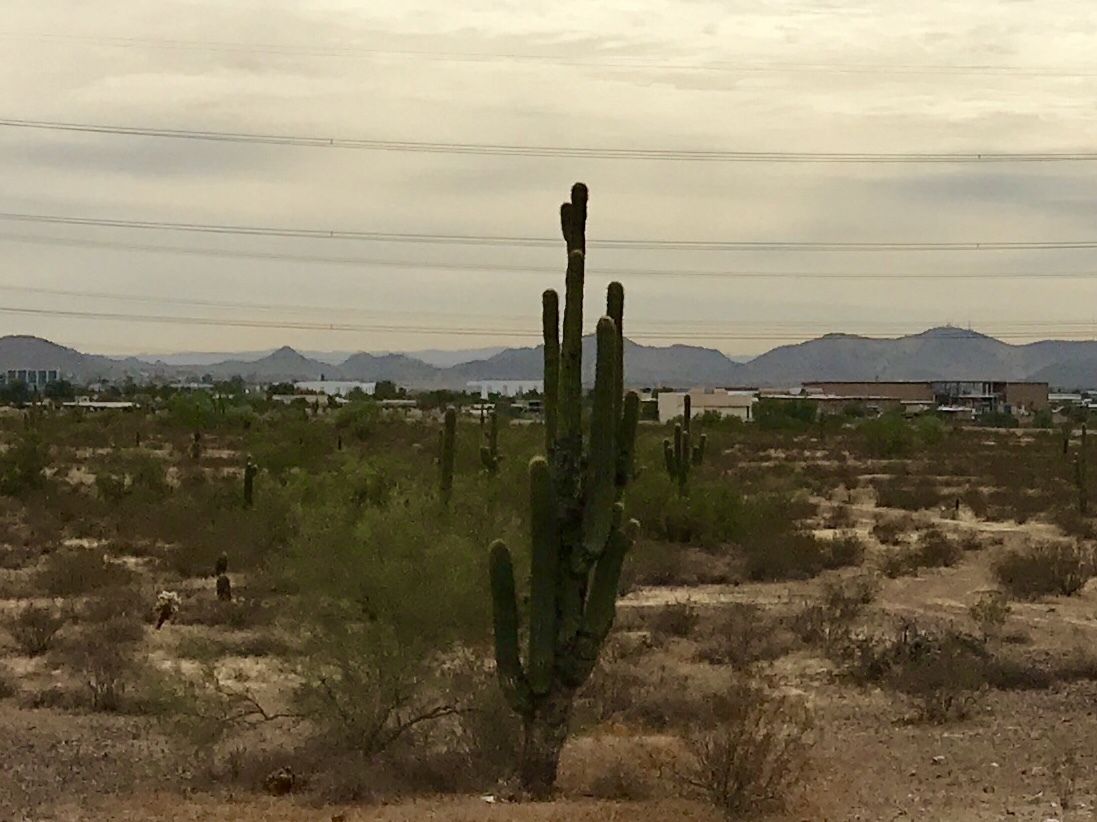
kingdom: Plantae
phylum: Tracheophyta
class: Magnoliopsida
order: Caryophyllales
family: Cactaceae
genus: Carnegiea
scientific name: Carnegiea gigantea
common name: Saguaro
